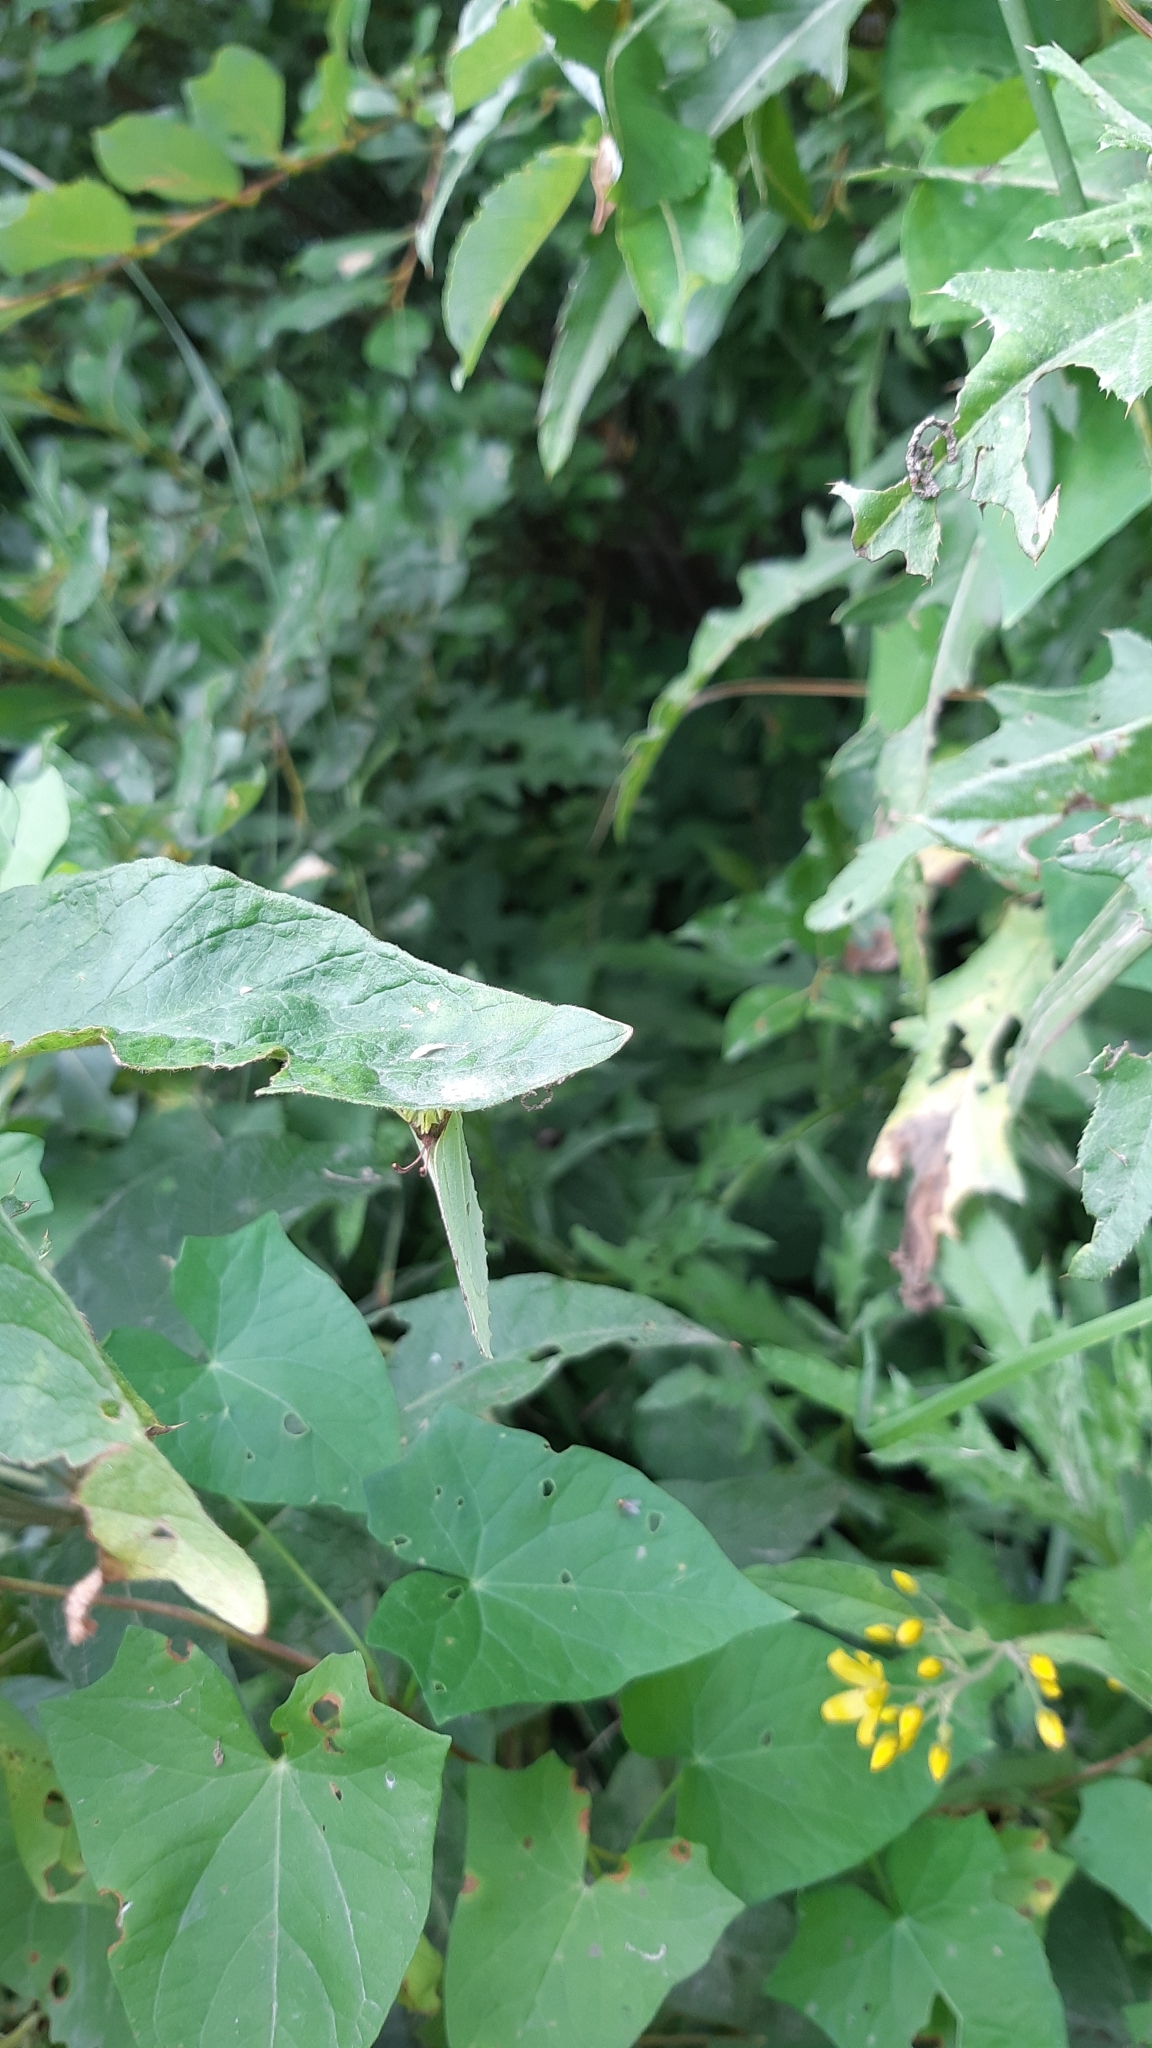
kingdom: Animalia
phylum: Arthropoda
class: Insecta
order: Lepidoptera
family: Pieridae
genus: Gonepteryx
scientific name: Gonepteryx rhamni
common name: Brimstone
